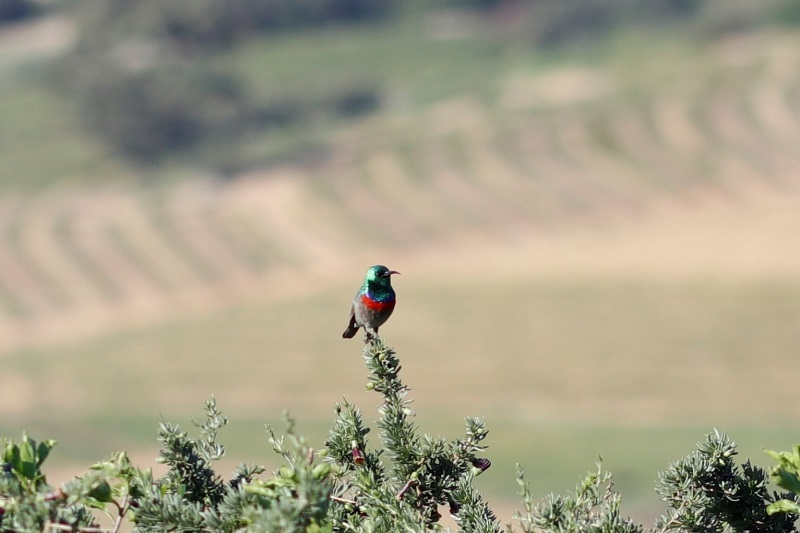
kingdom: Animalia
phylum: Chordata
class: Aves
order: Passeriformes
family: Nectariniidae
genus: Cinnyris
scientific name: Cinnyris chalybeus
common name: Southern double-collared sunbird
